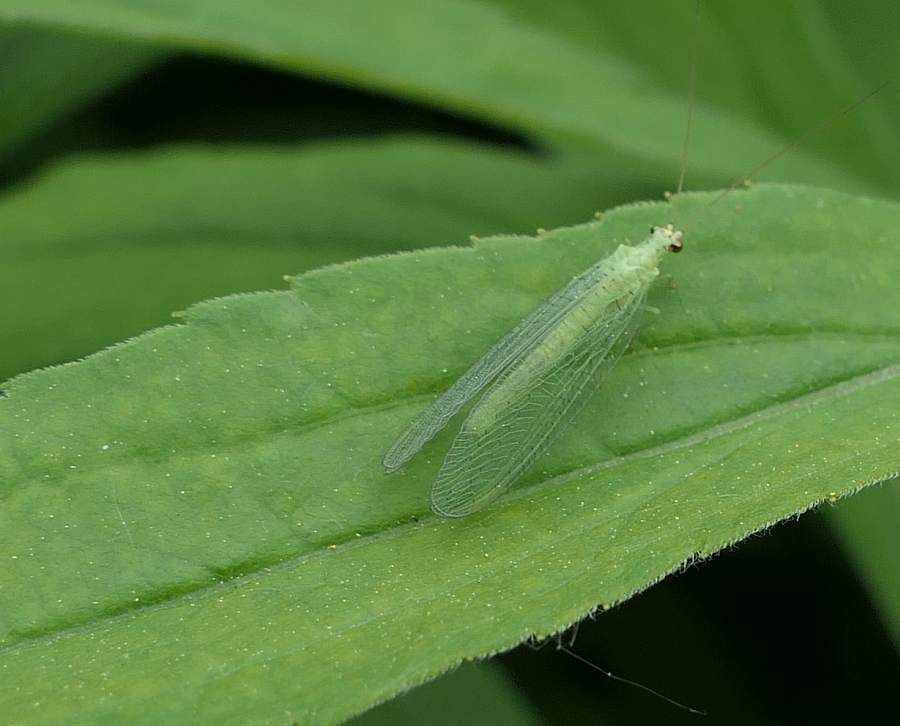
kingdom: Animalia
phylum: Arthropoda
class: Insecta
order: Neuroptera
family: Chrysopidae
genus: Chrysopa
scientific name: Chrysopa oculata
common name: Golden-eyed lacewing
